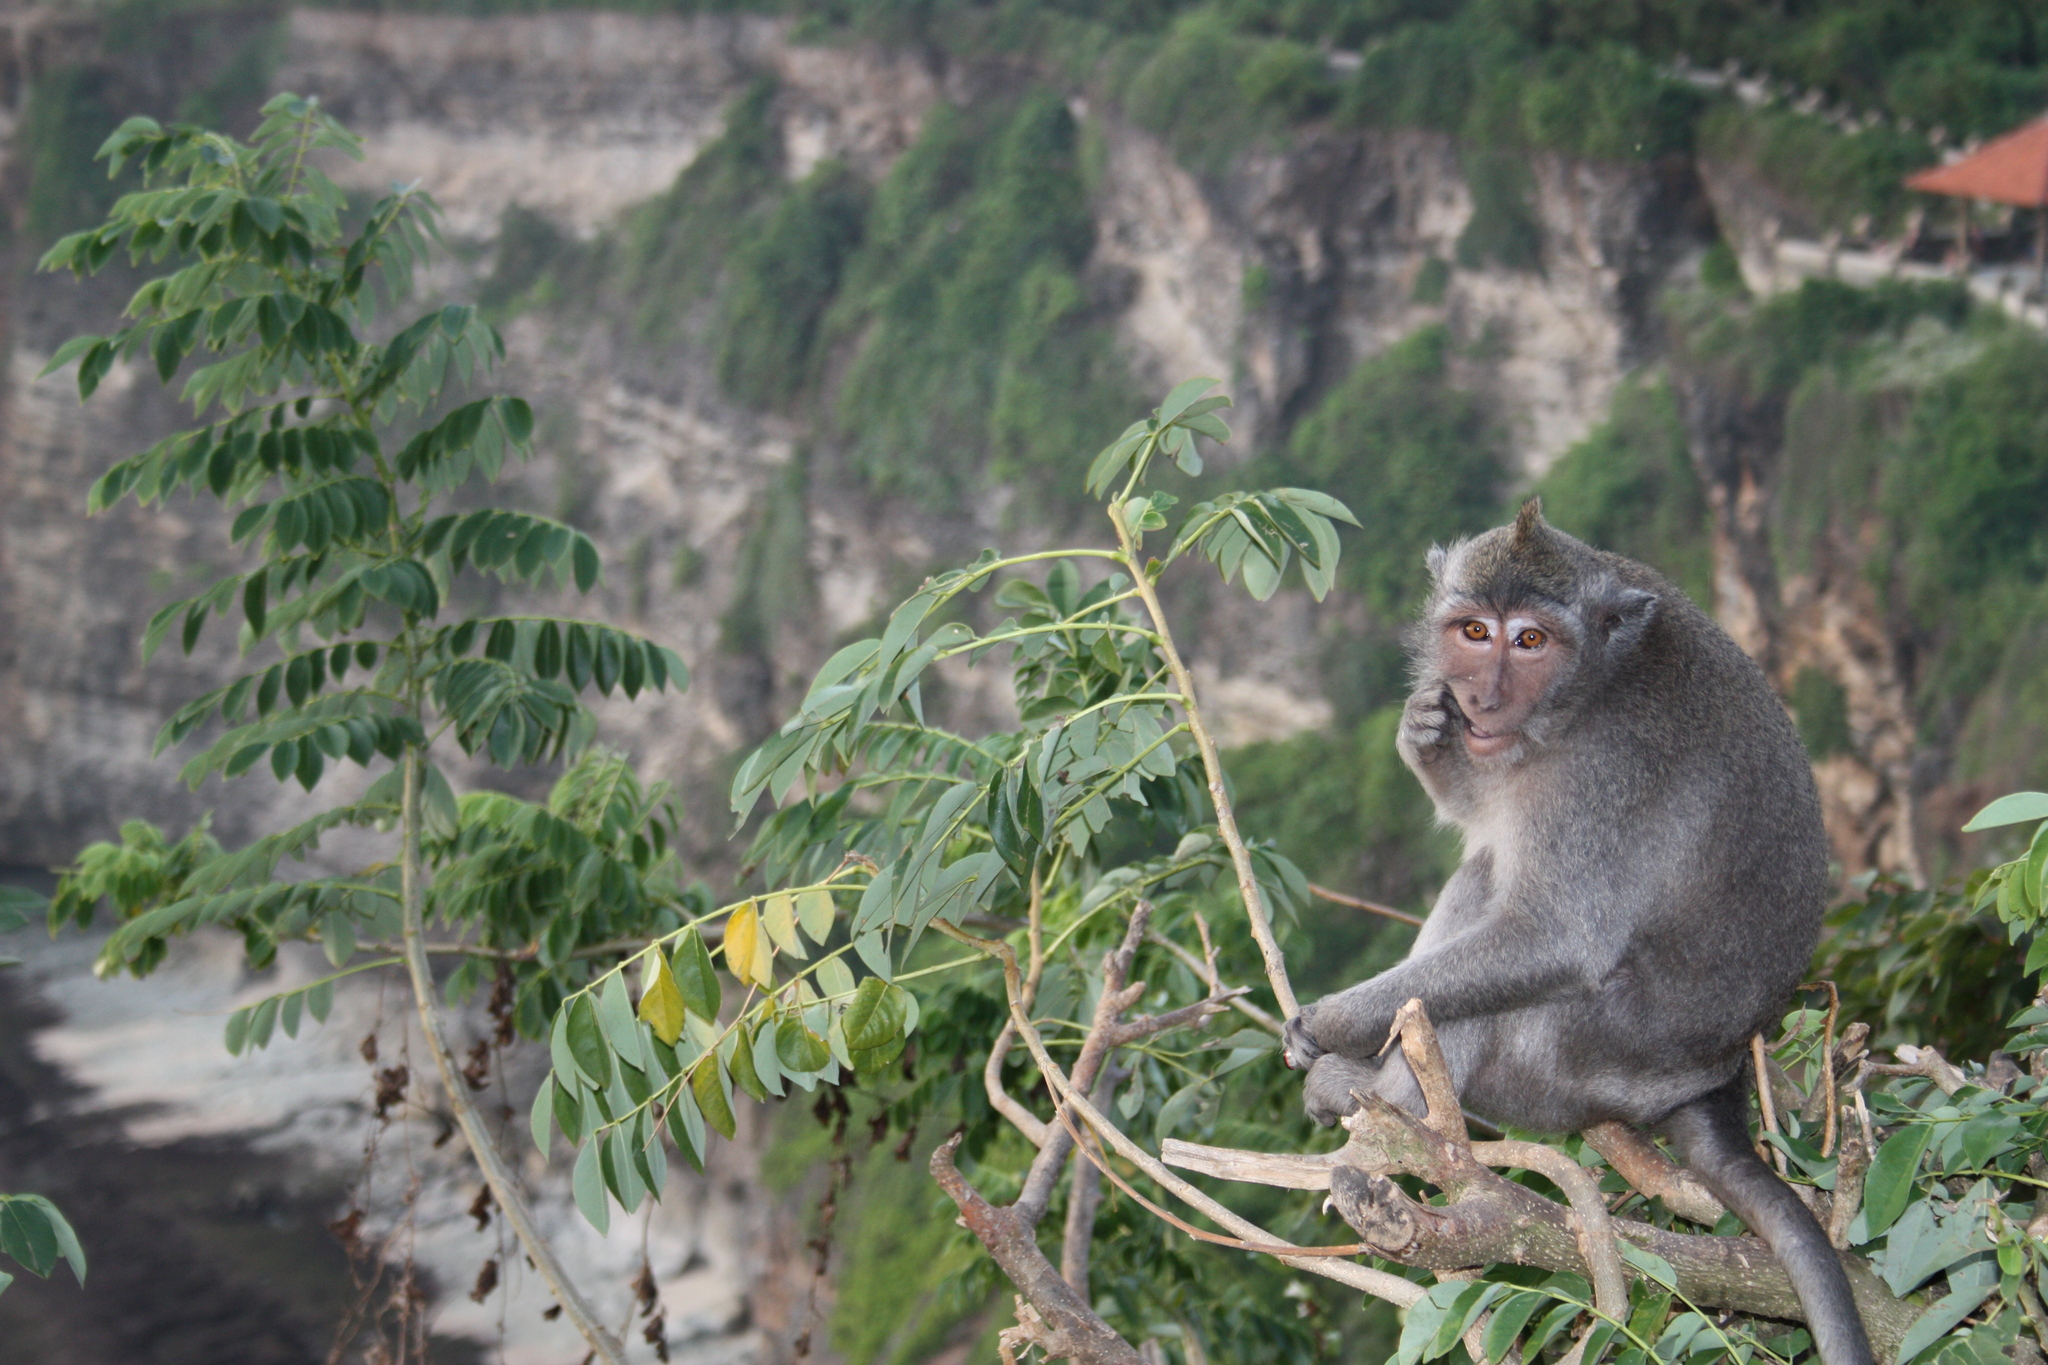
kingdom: Animalia
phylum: Chordata
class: Mammalia
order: Primates
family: Cercopithecidae
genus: Macaca
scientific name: Macaca fascicularis
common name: Crab-eating macaque
